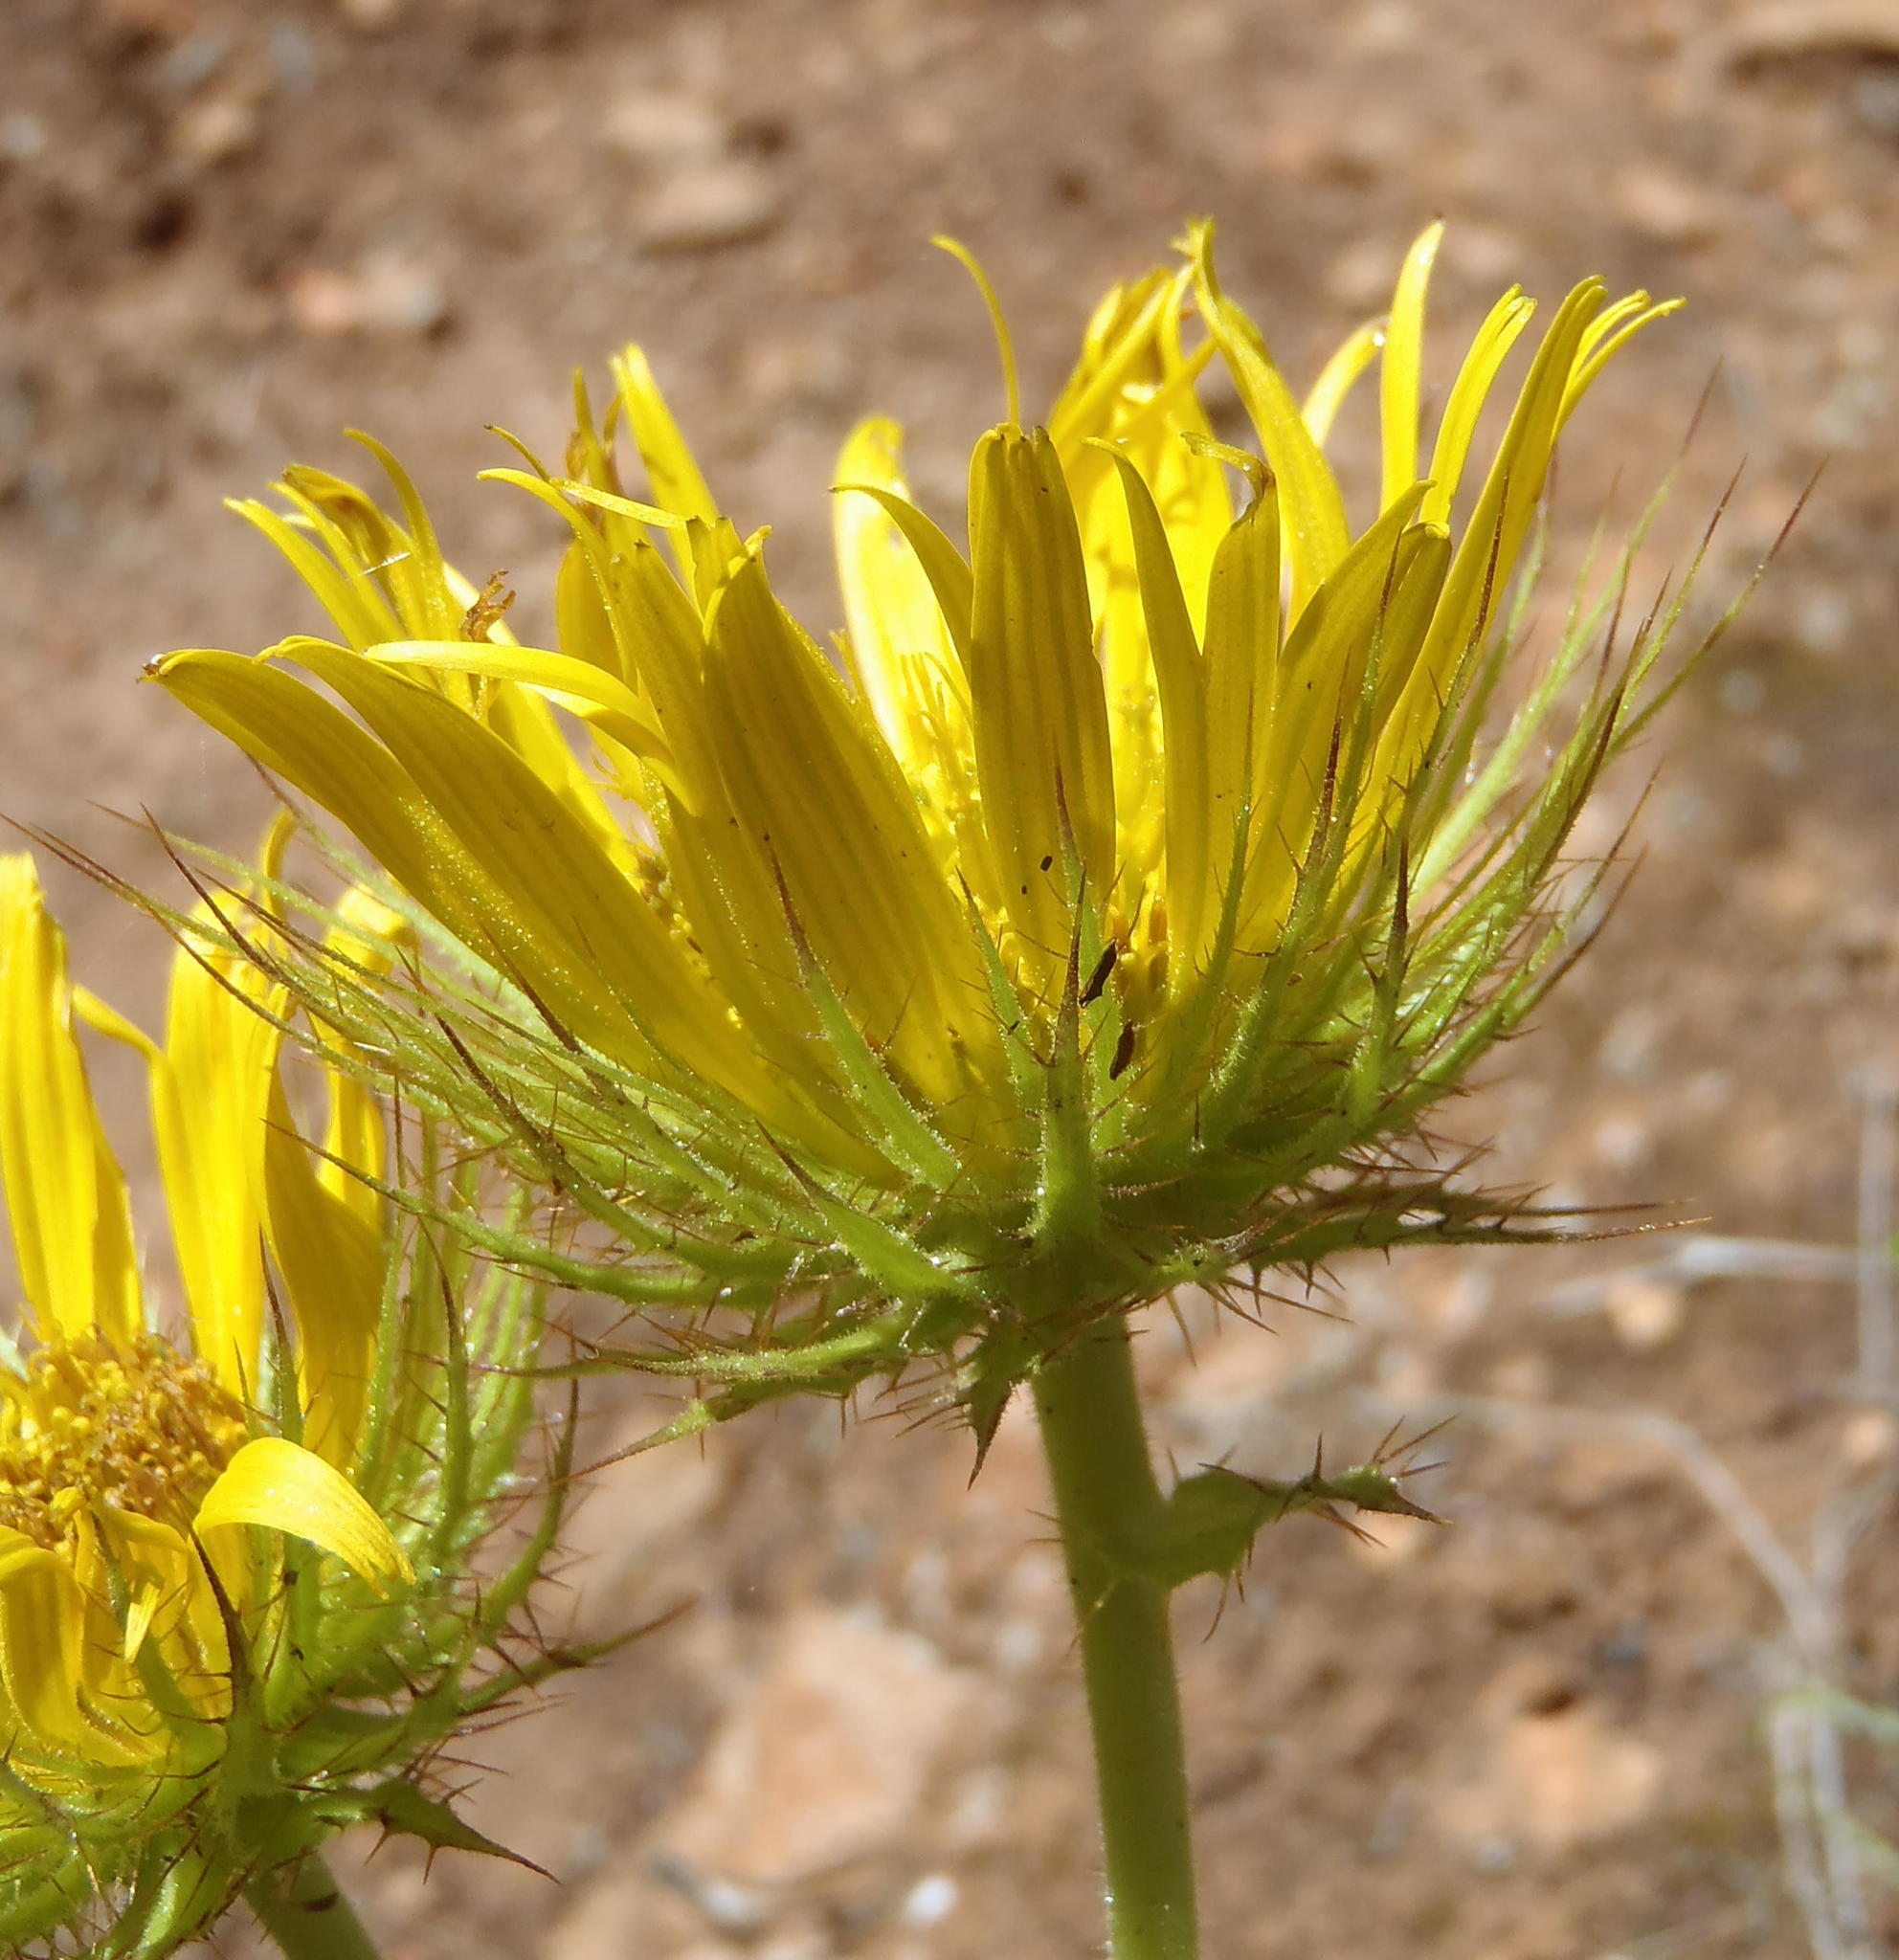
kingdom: Plantae
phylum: Tracheophyta
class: Magnoliopsida
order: Asterales
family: Asteraceae
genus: Berkheya
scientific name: Berkheya carlinoides
